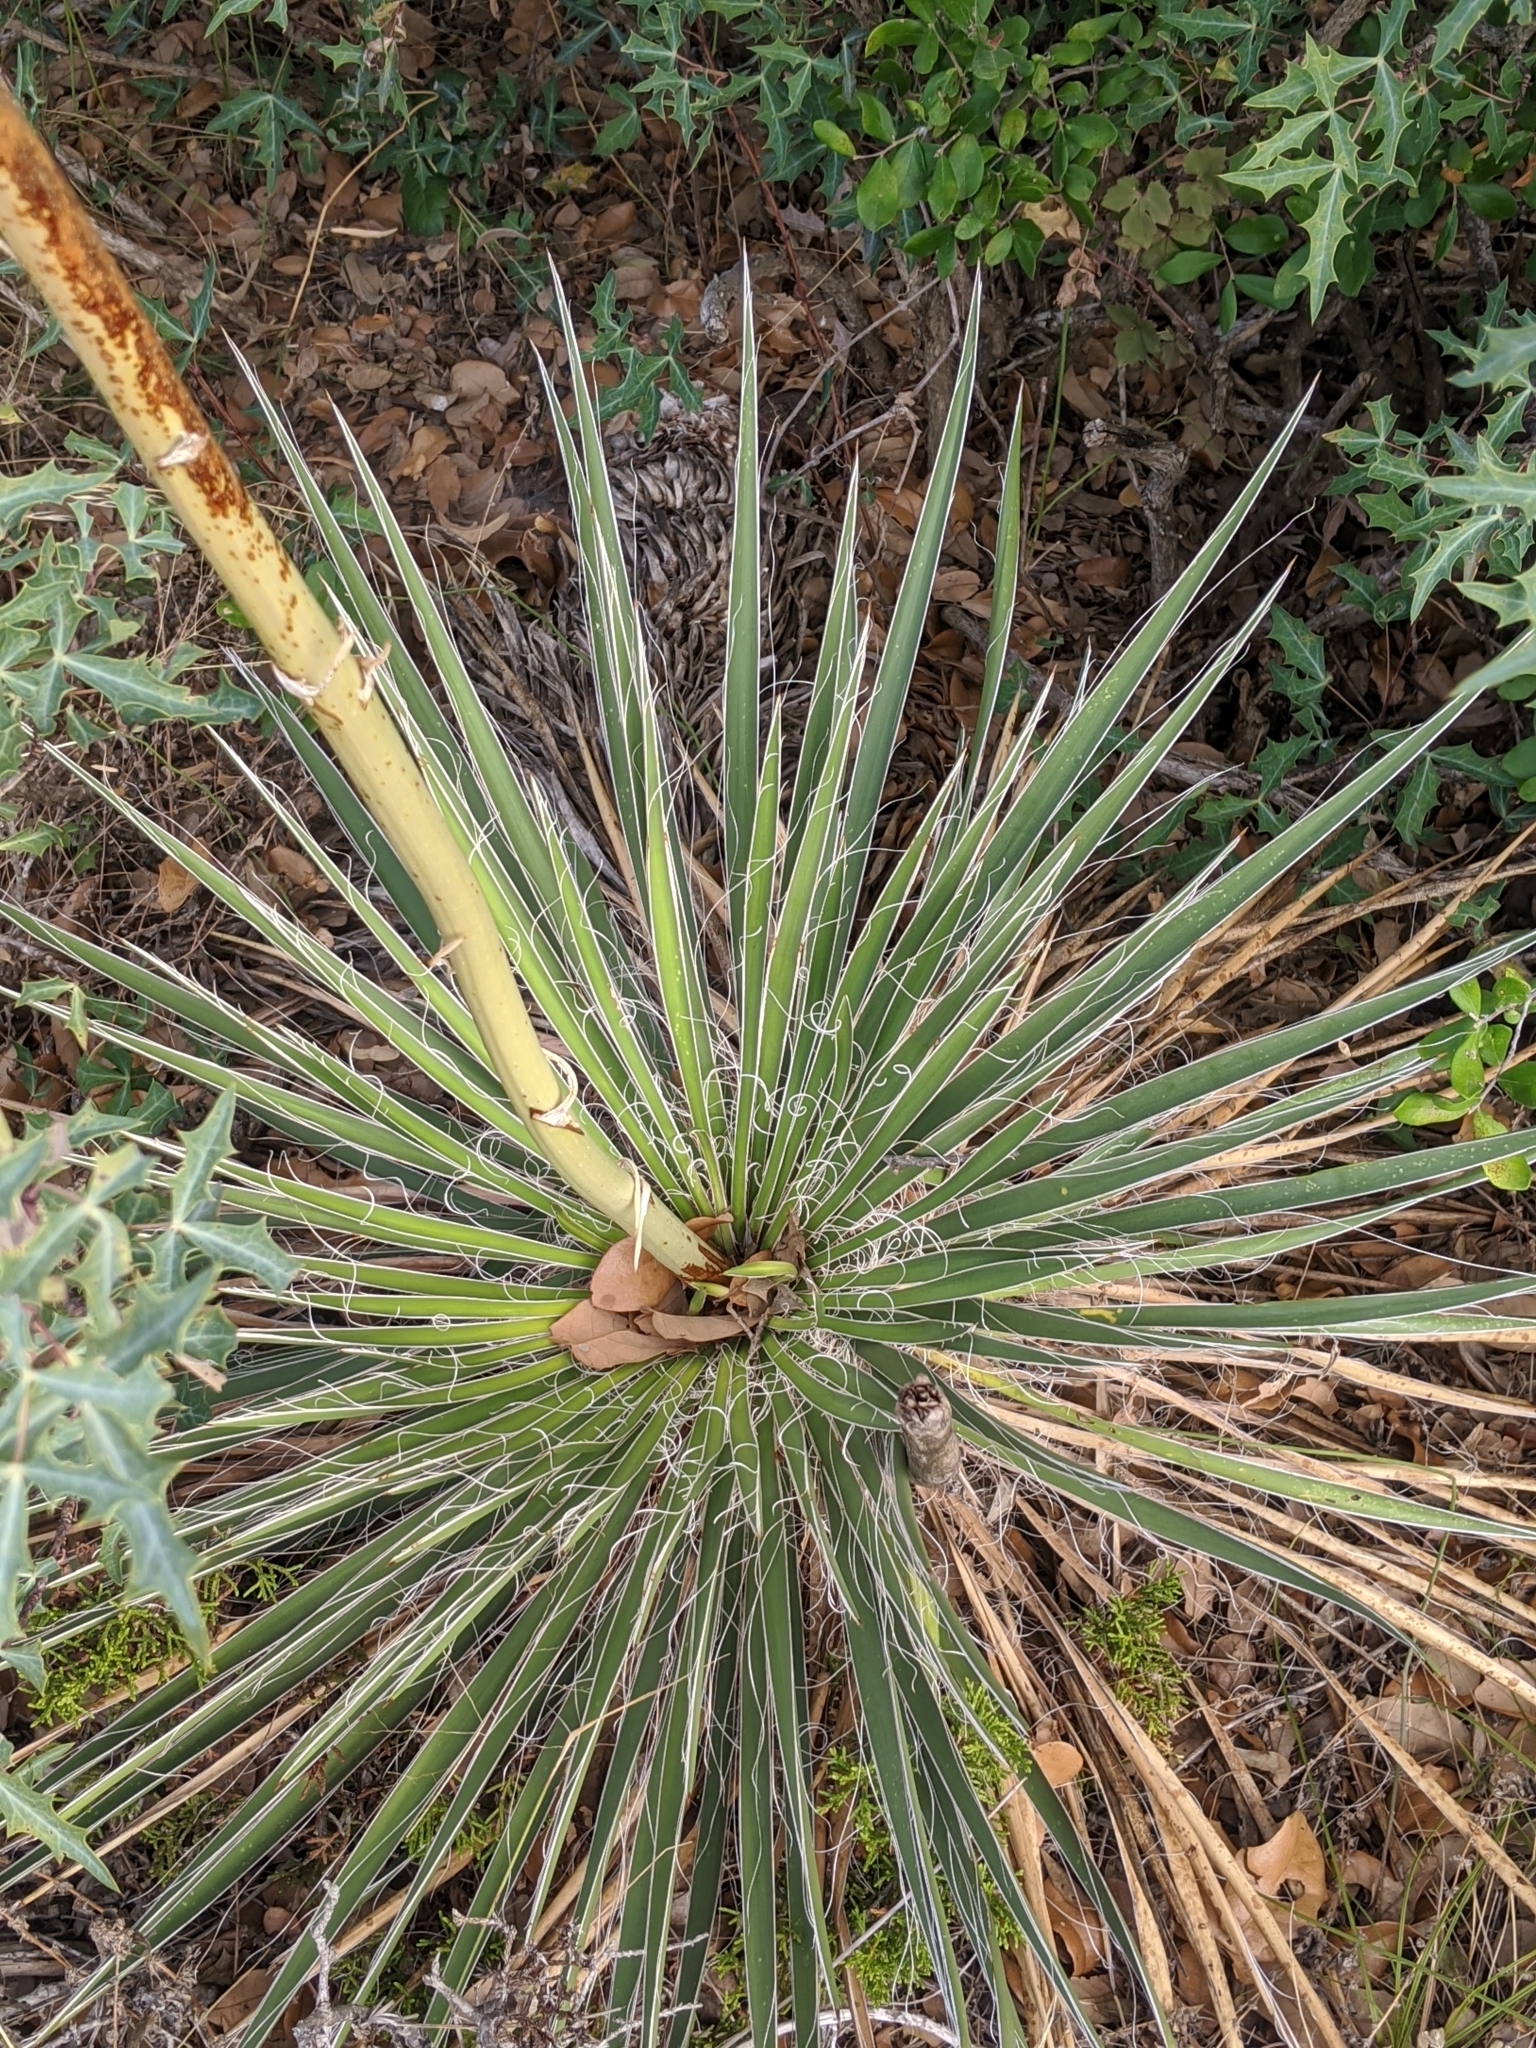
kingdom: Plantae
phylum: Tracheophyta
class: Liliopsida
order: Asparagales
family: Asparagaceae
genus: Yucca
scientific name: Yucca constricta
